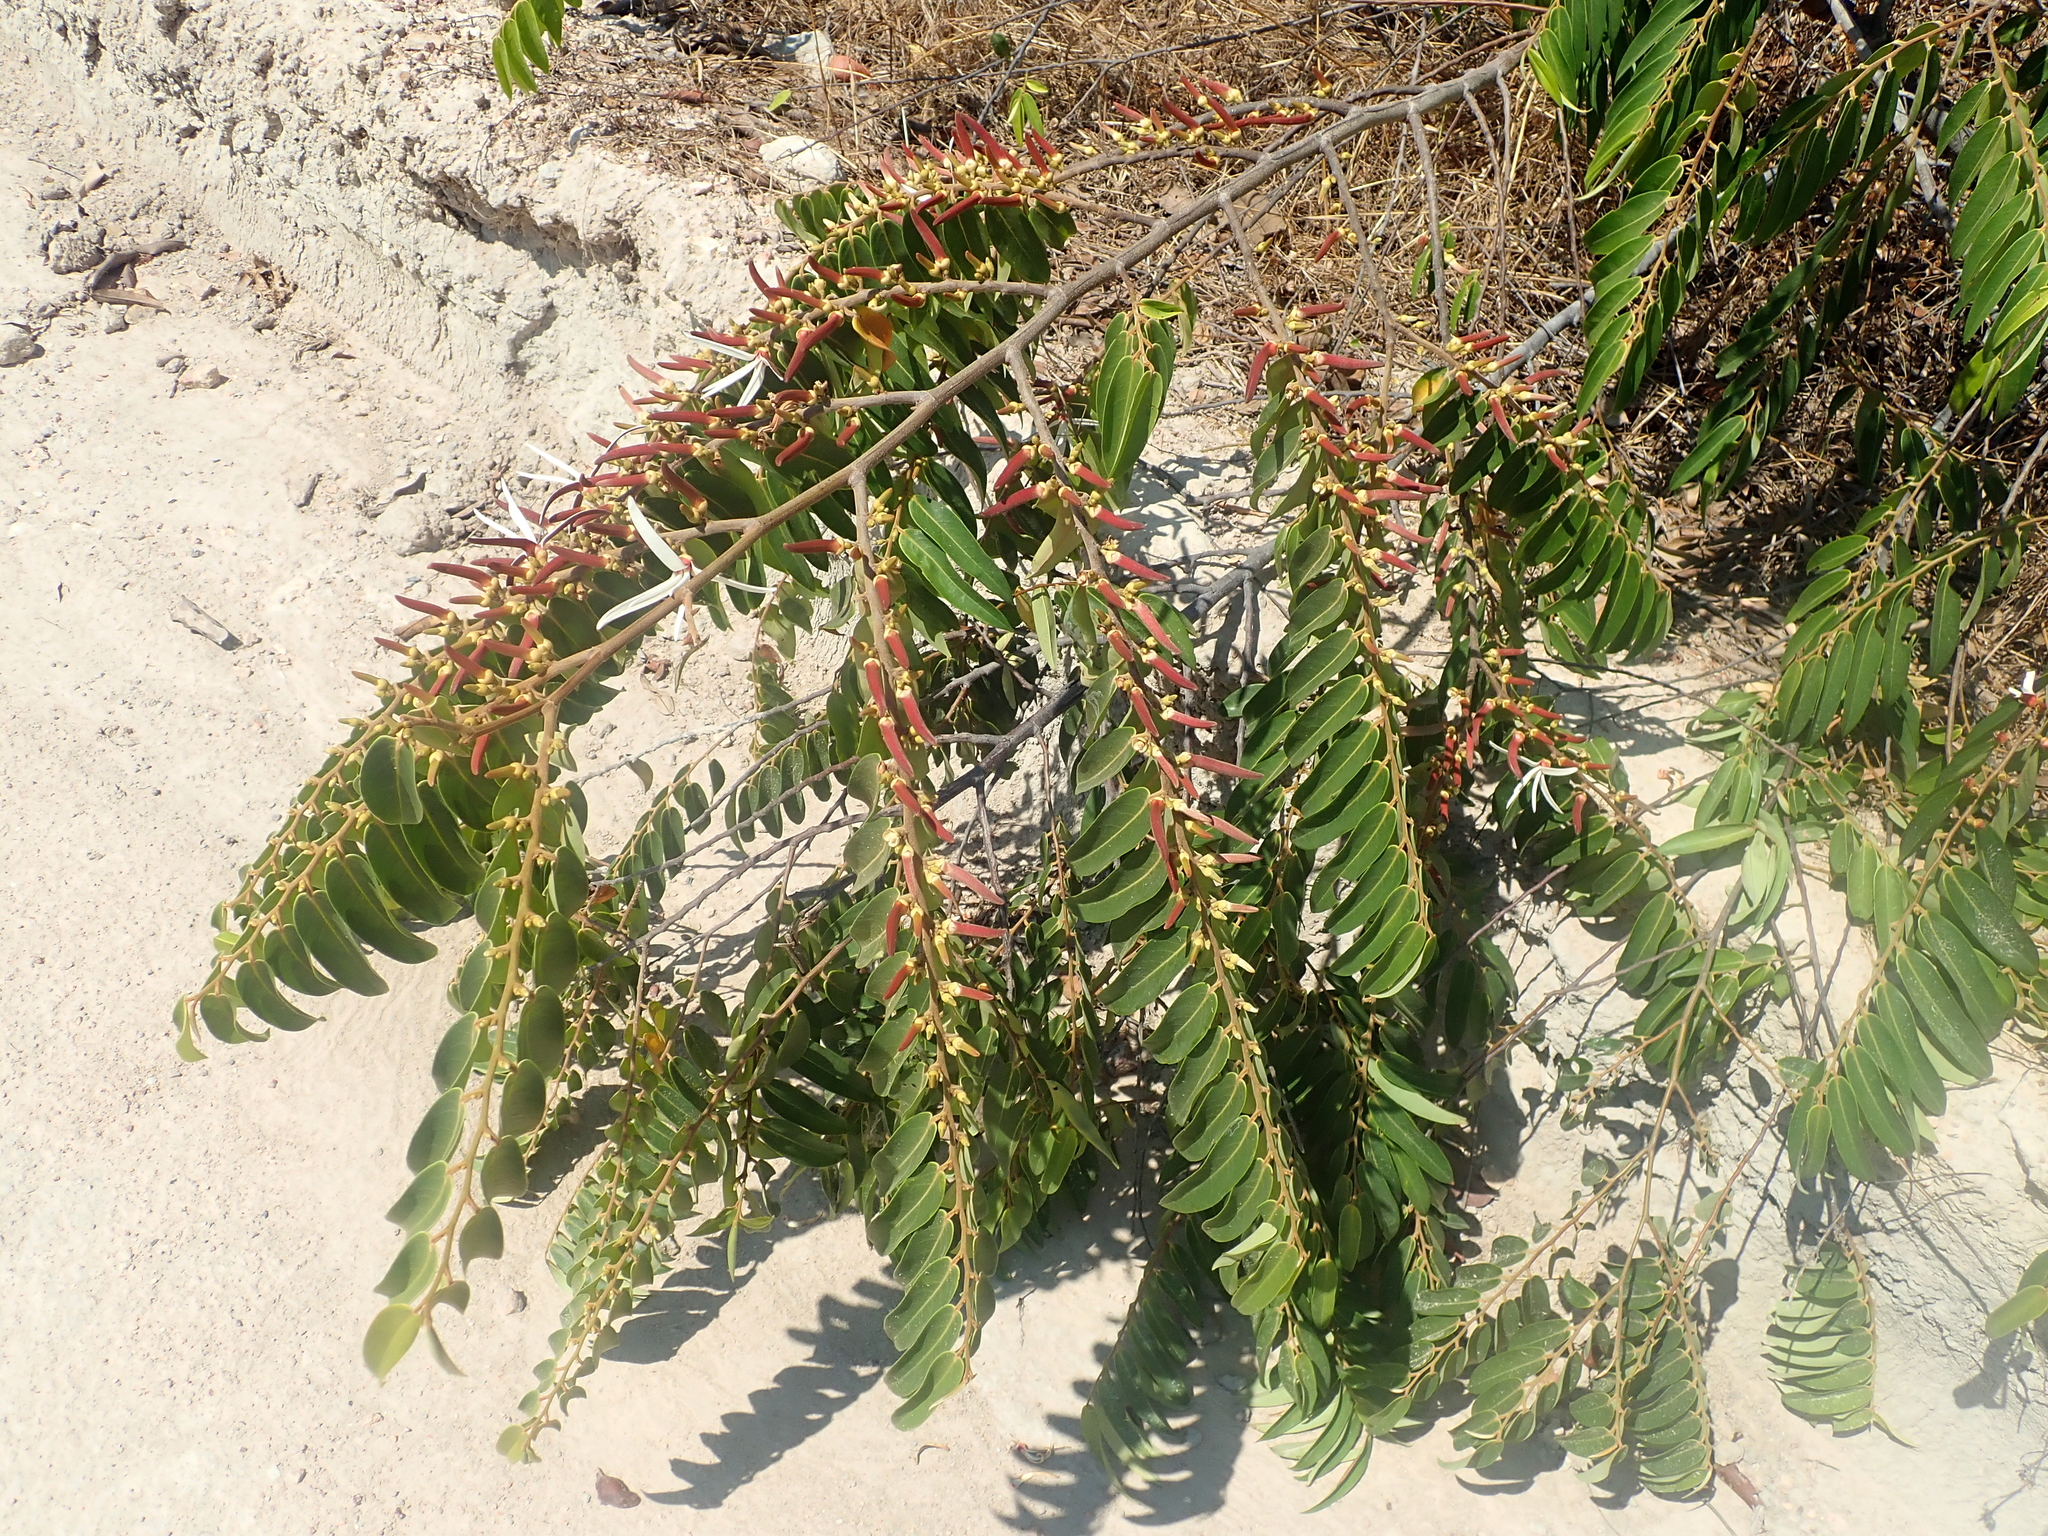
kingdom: Plantae
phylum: Tracheophyta
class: Magnoliopsida
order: Magnoliales
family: Annonaceae
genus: Xylopia
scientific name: Xylopia aromatica
